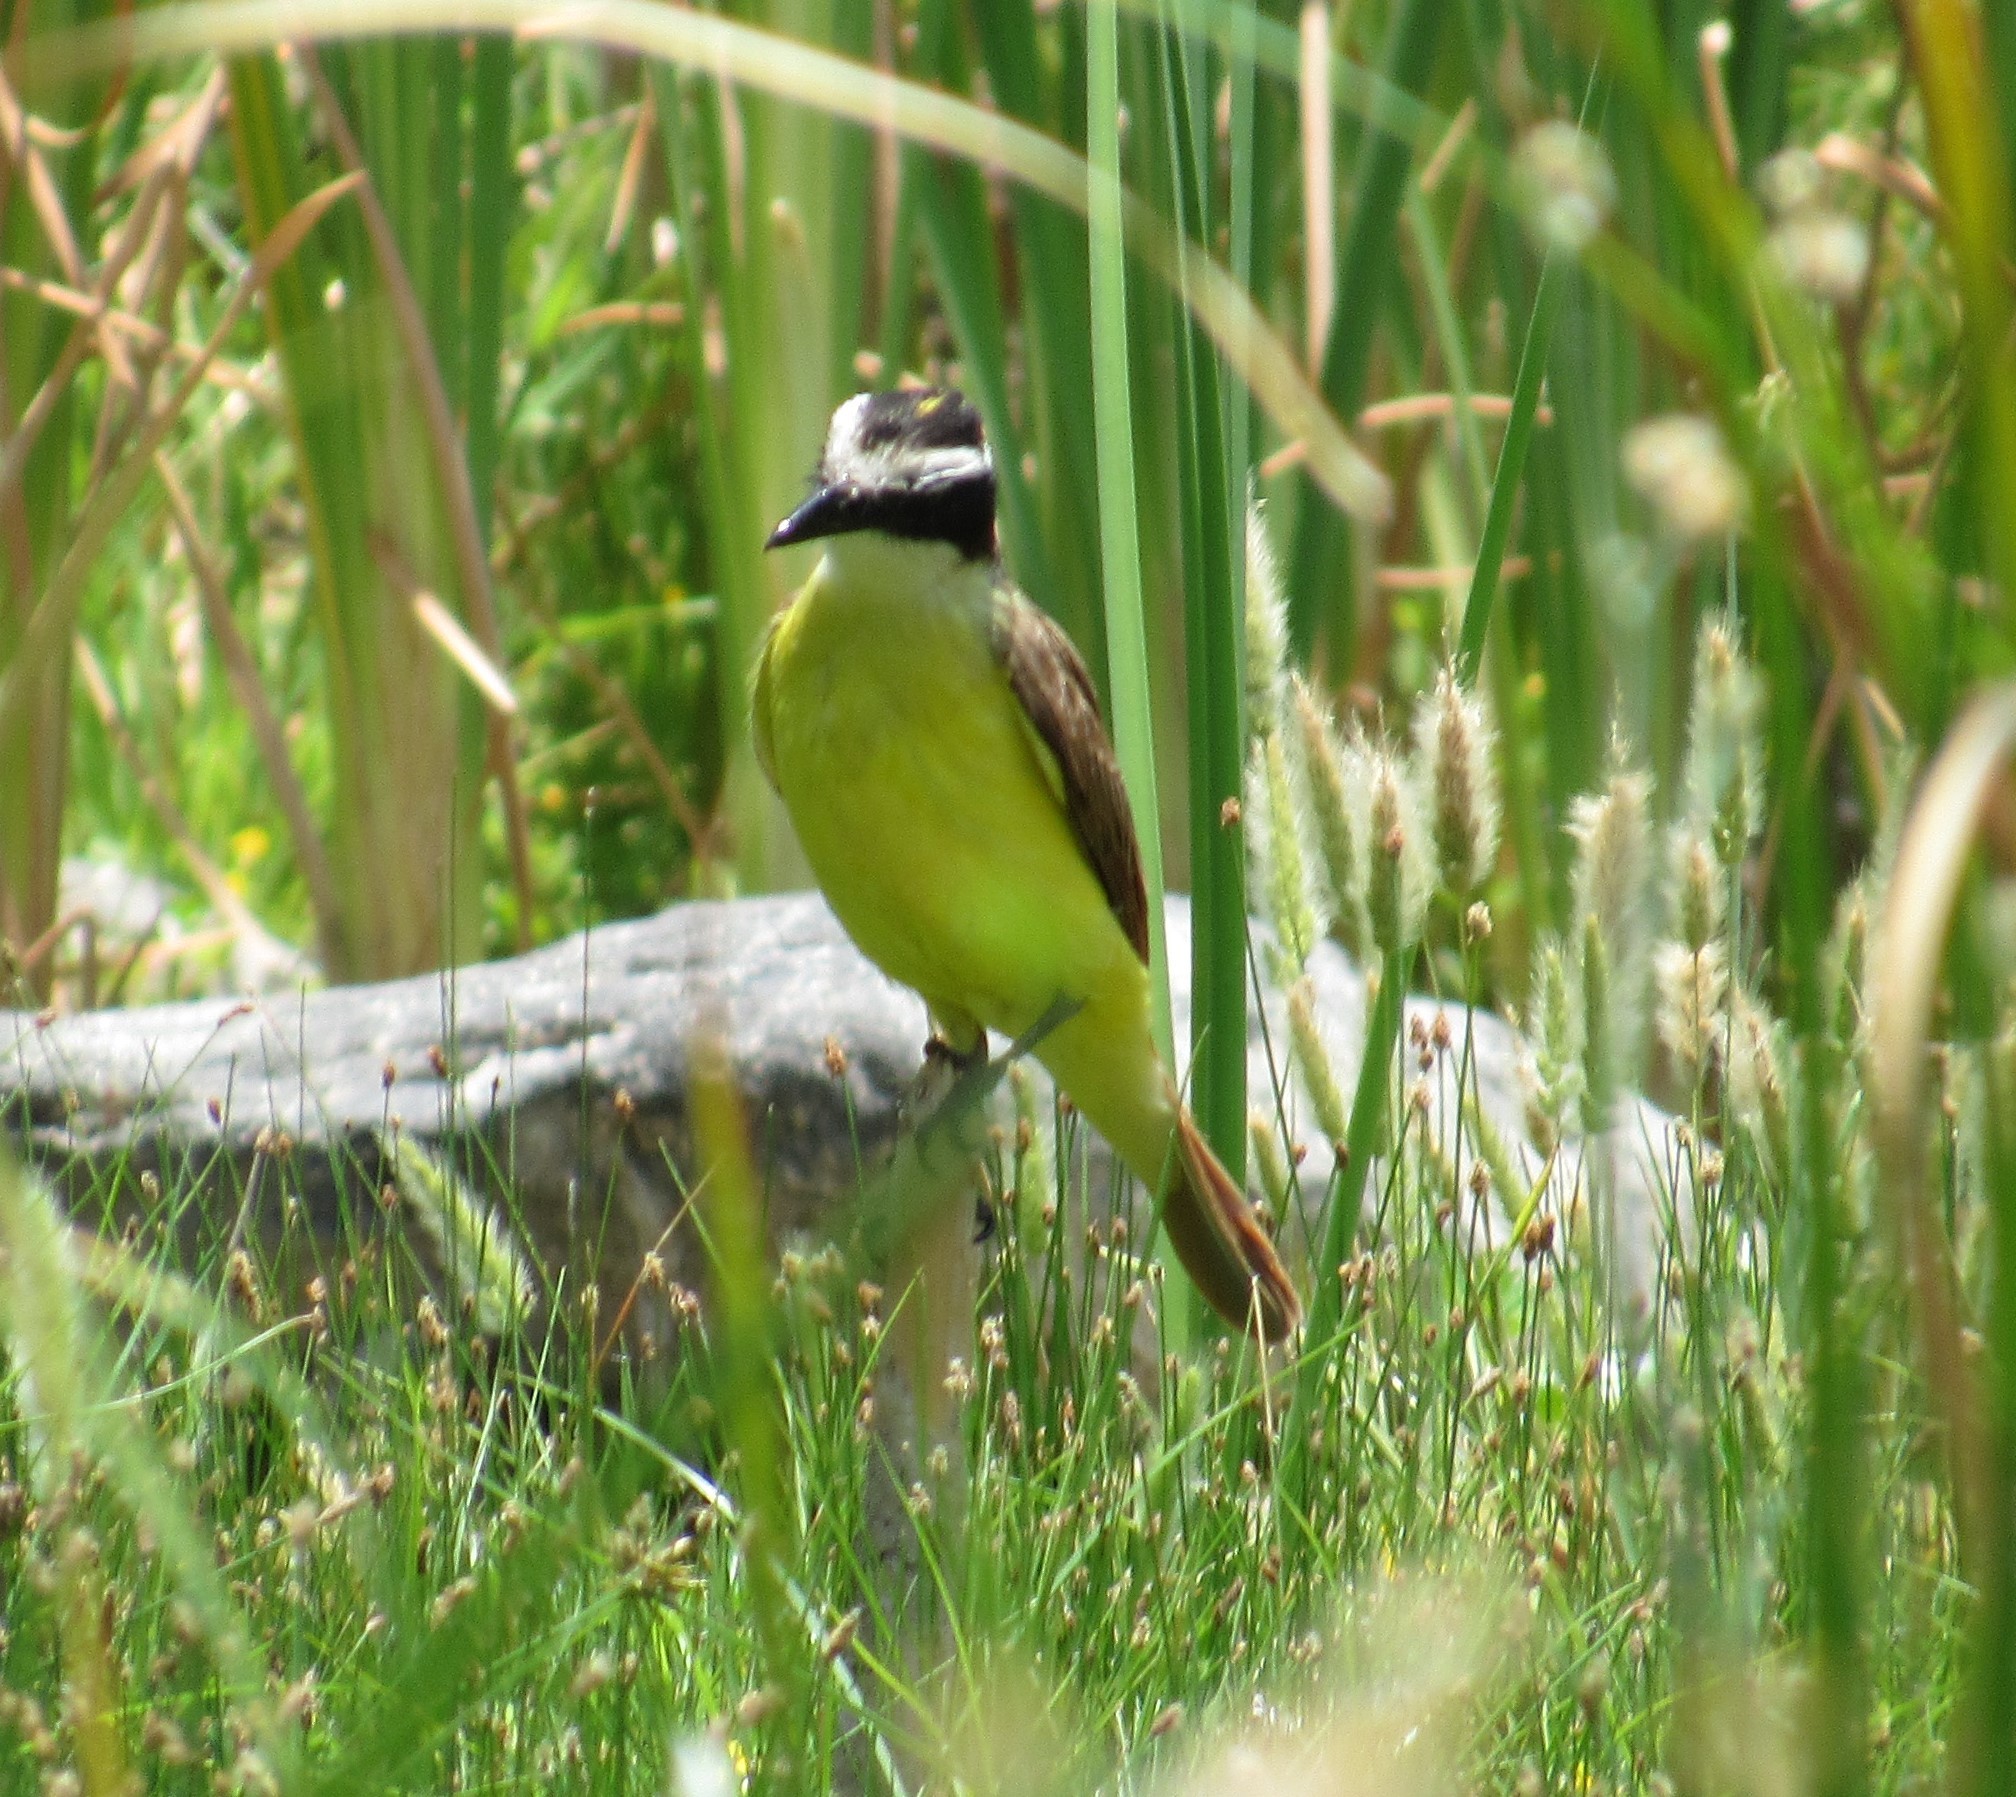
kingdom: Animalia
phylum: Chordata
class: Aves
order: Passeriformes
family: Tyrannidae
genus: Pitangus
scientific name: Pitangus sulphuratus
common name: Great kiskadee
